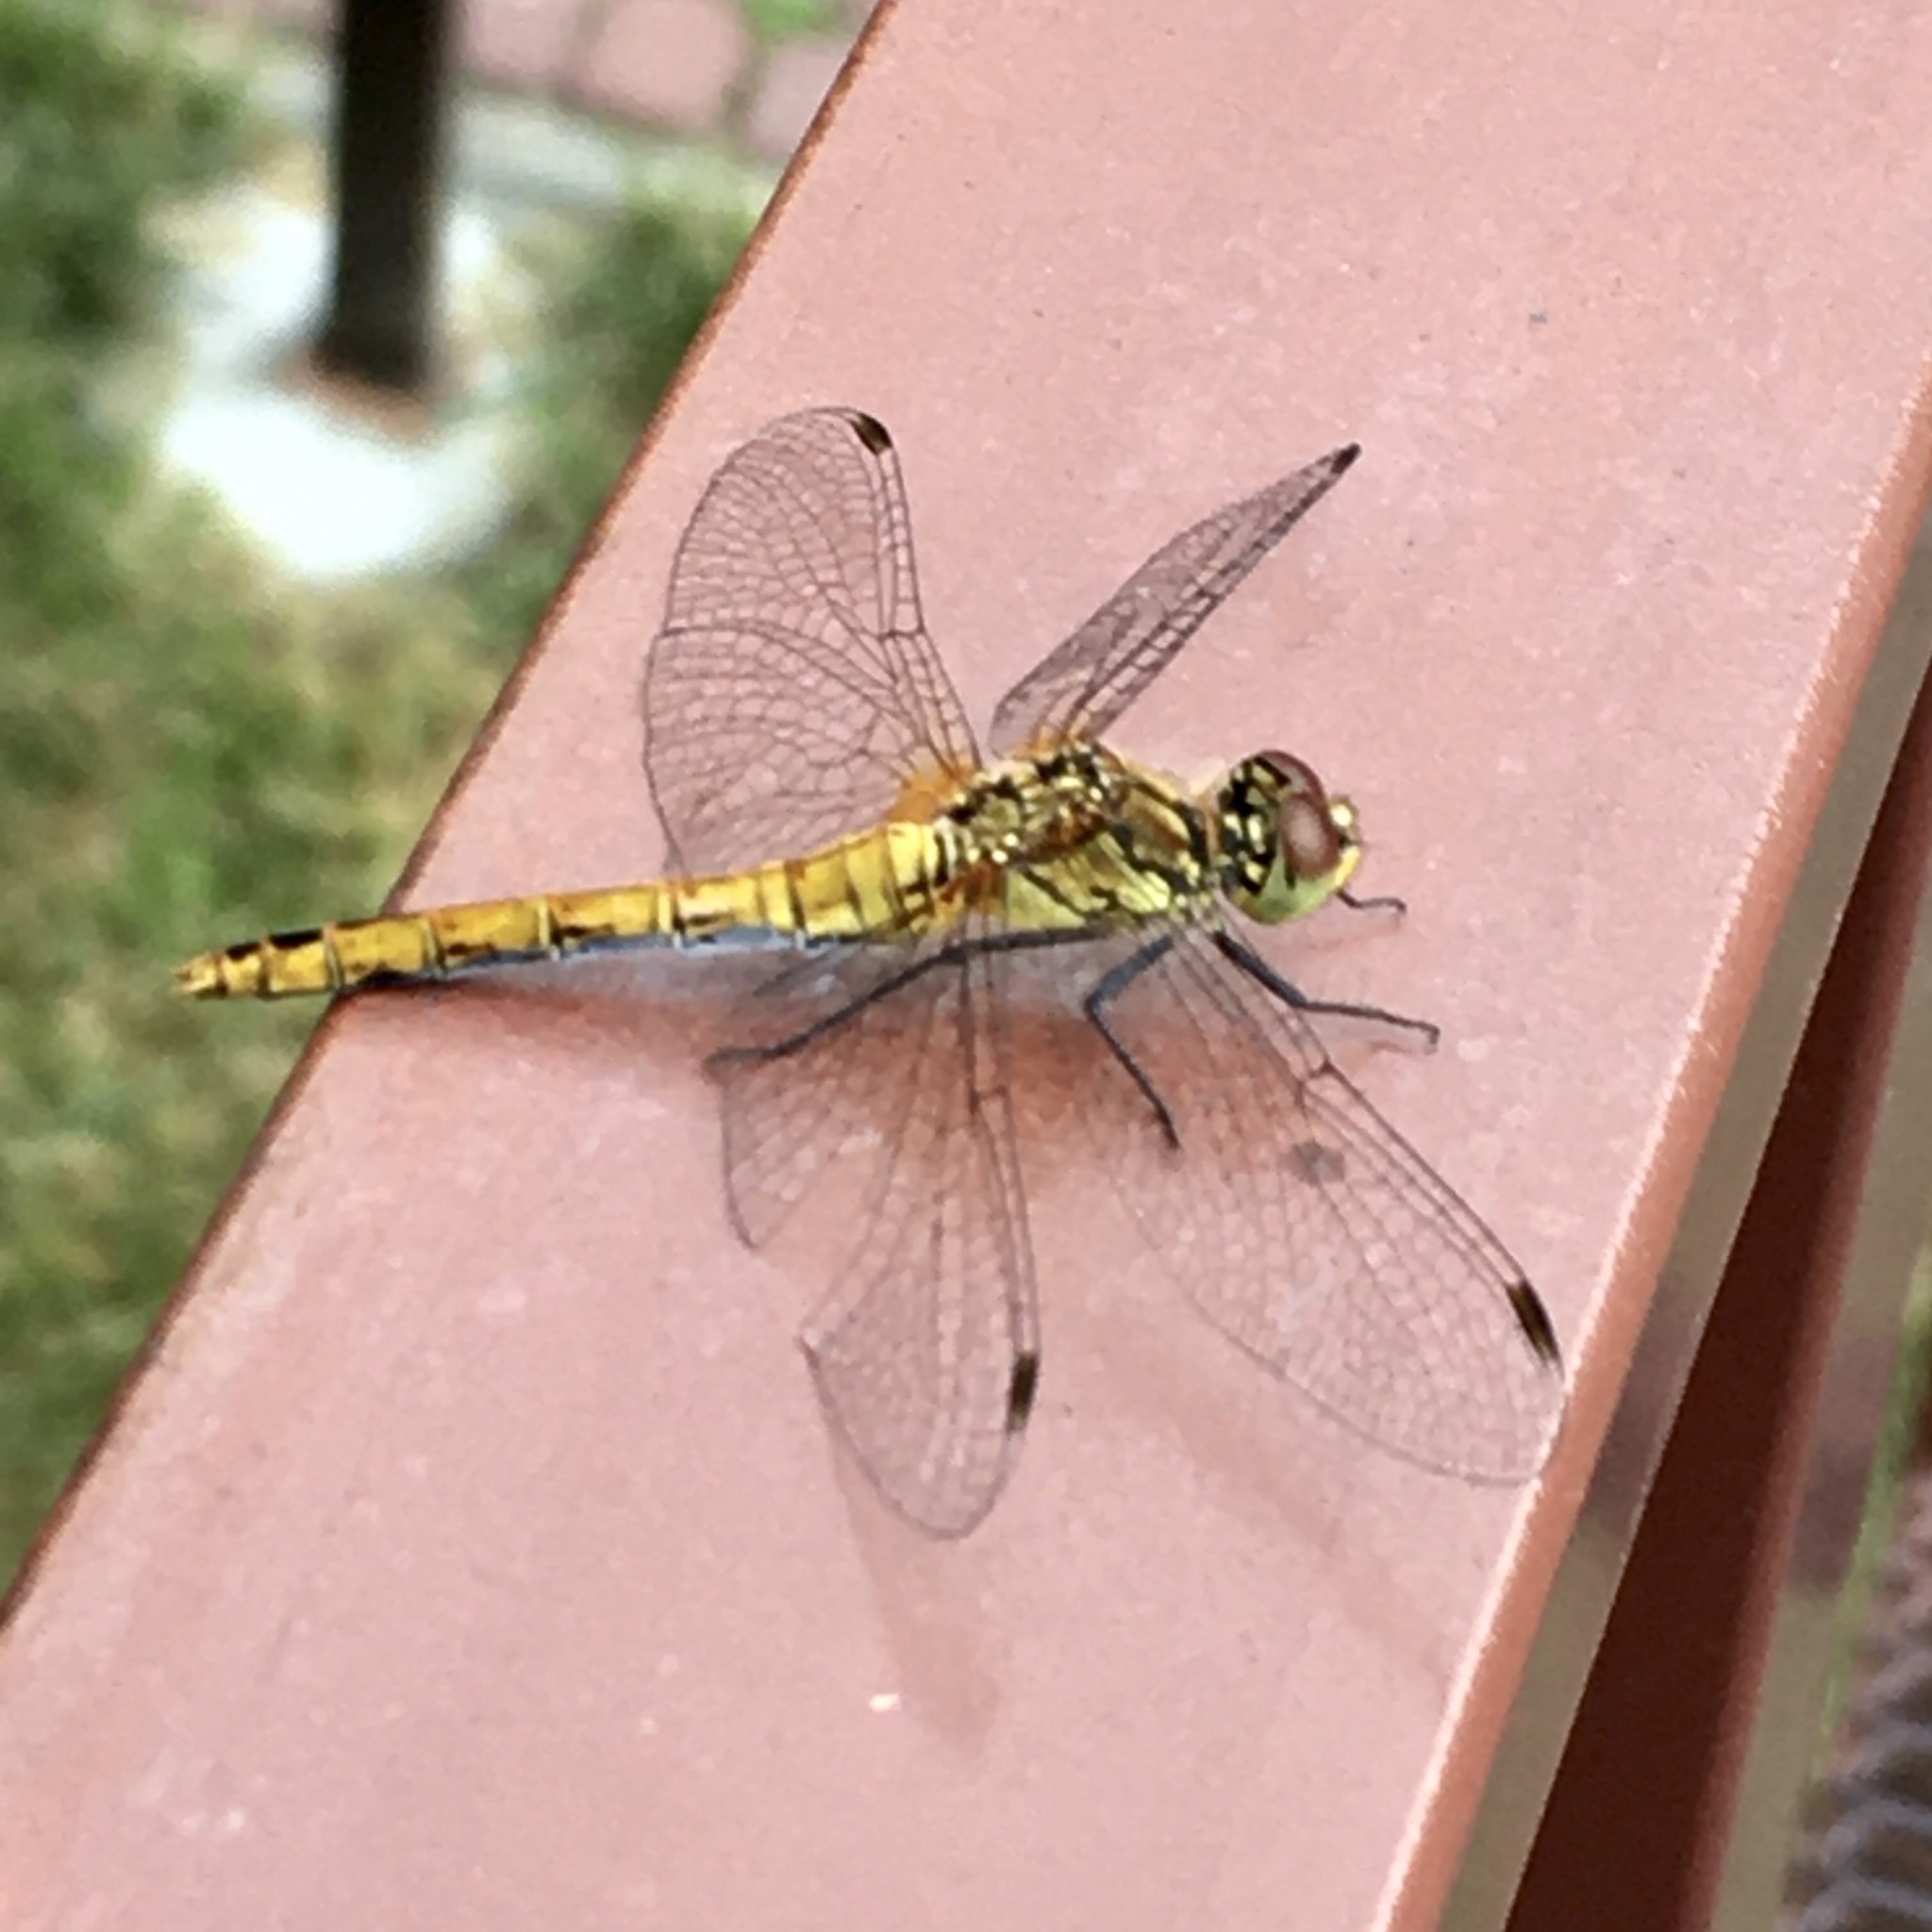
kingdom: Animalia
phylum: Arthropoda
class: Insecta
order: Odonata
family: Libellulidae
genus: Sympetrum
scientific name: Sympetrum sanguineum
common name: Ruddy darter
